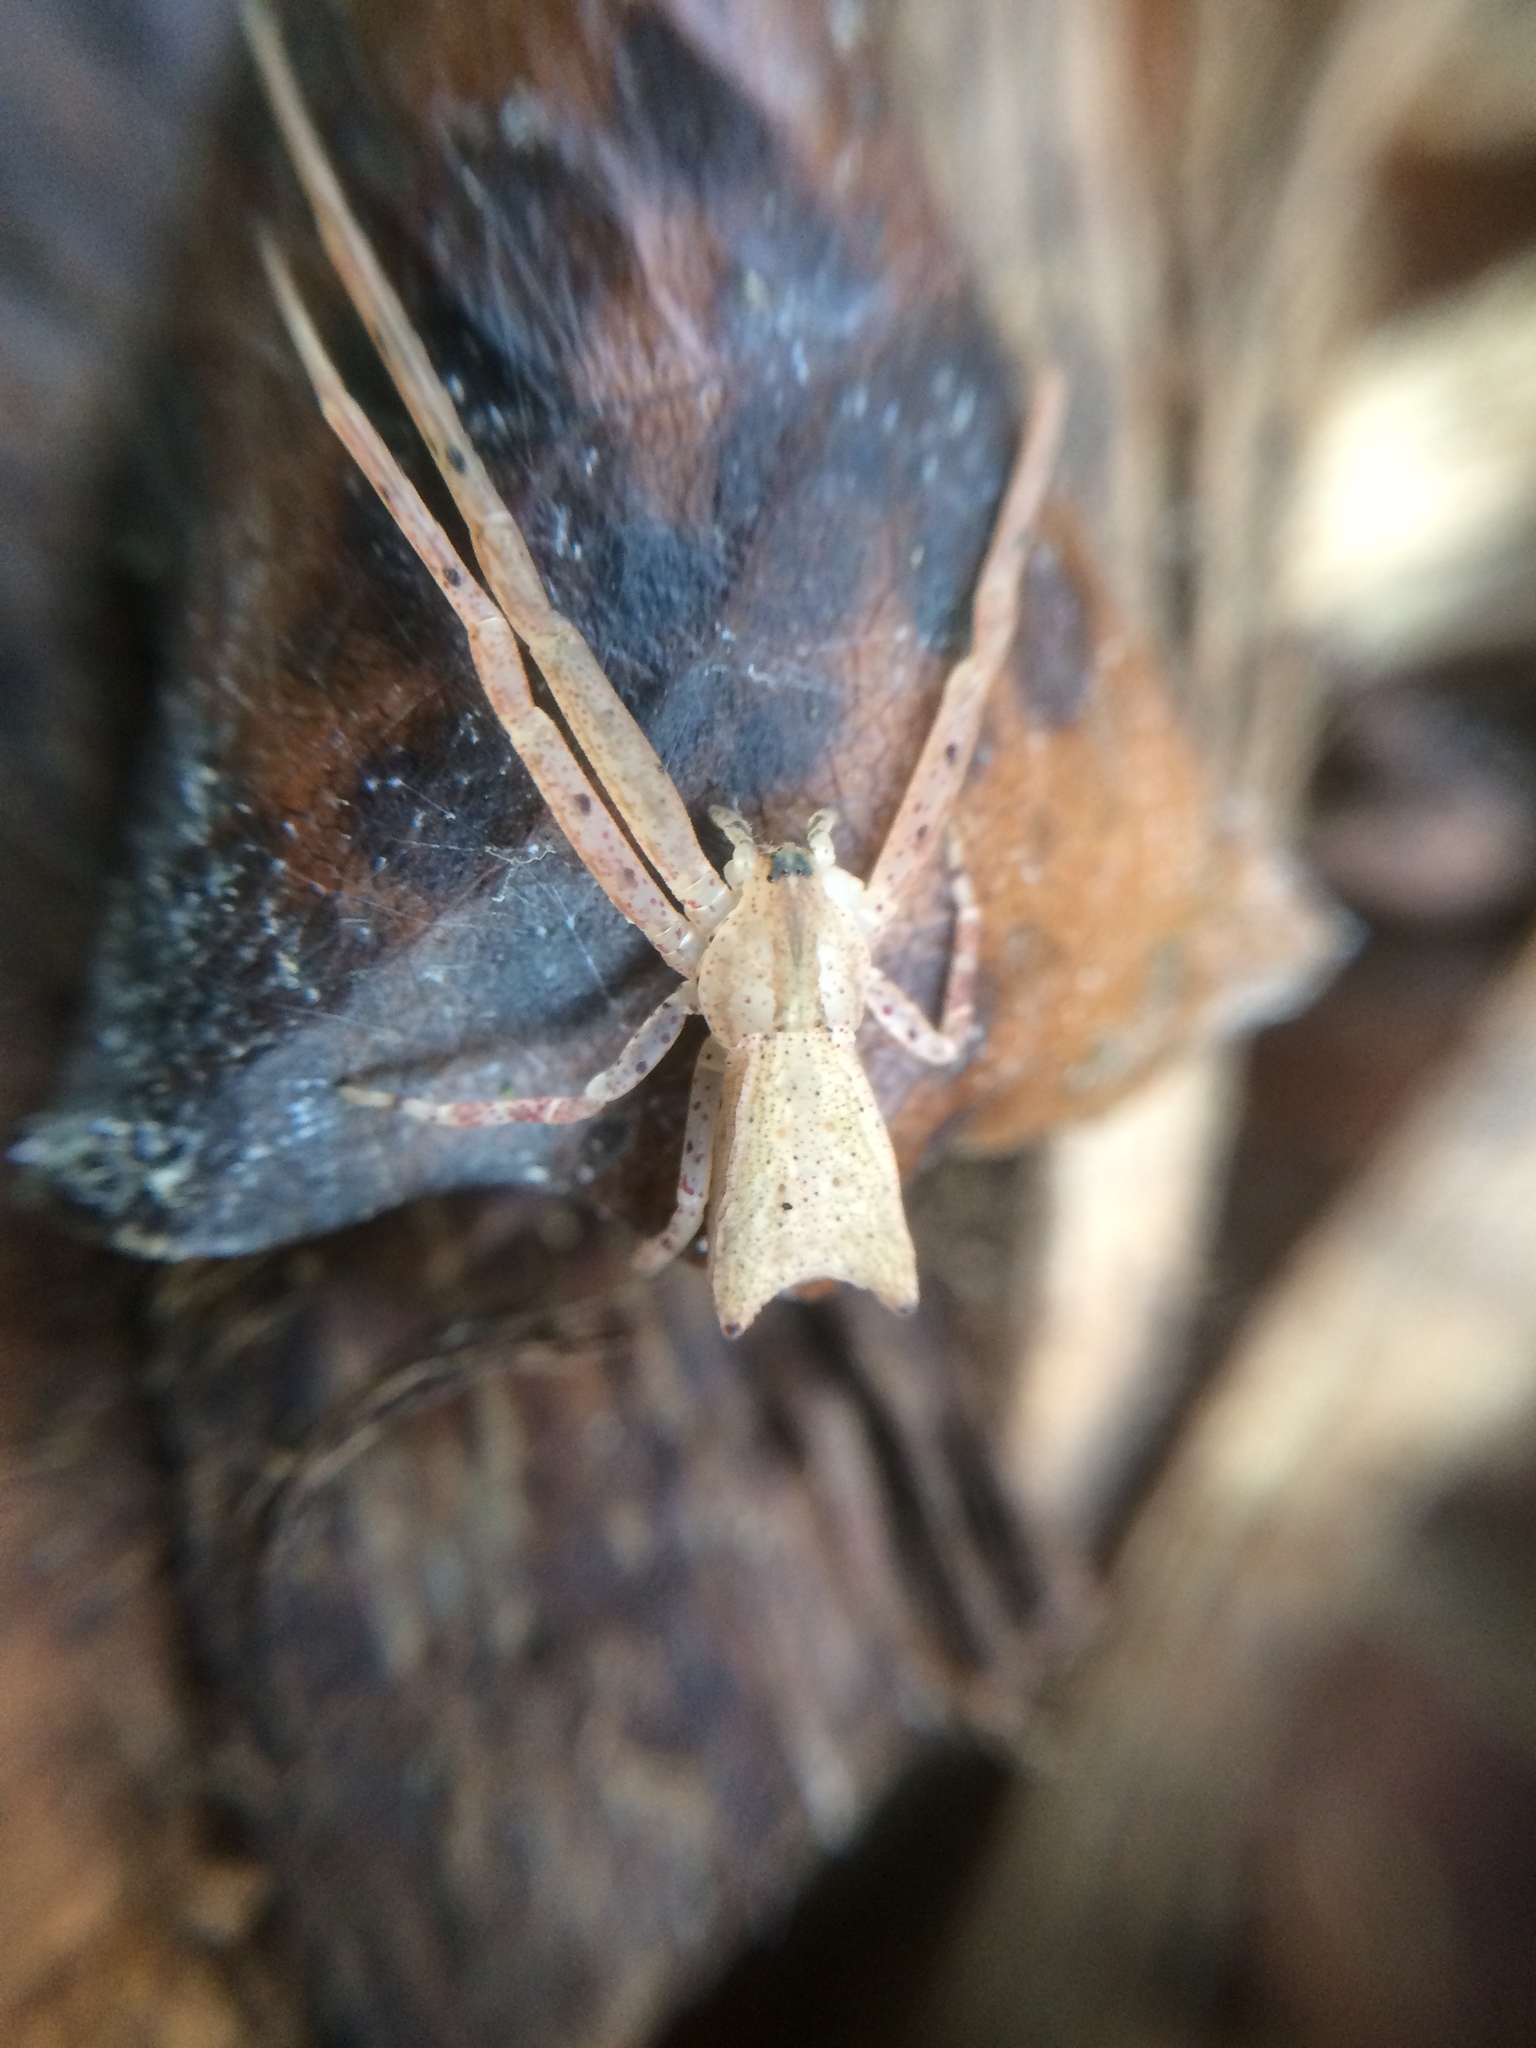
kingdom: Animalia
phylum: Arthropoda
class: Arachnida
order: Araneae
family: Thomisidae
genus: Sidymella
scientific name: Sidymella longipes
